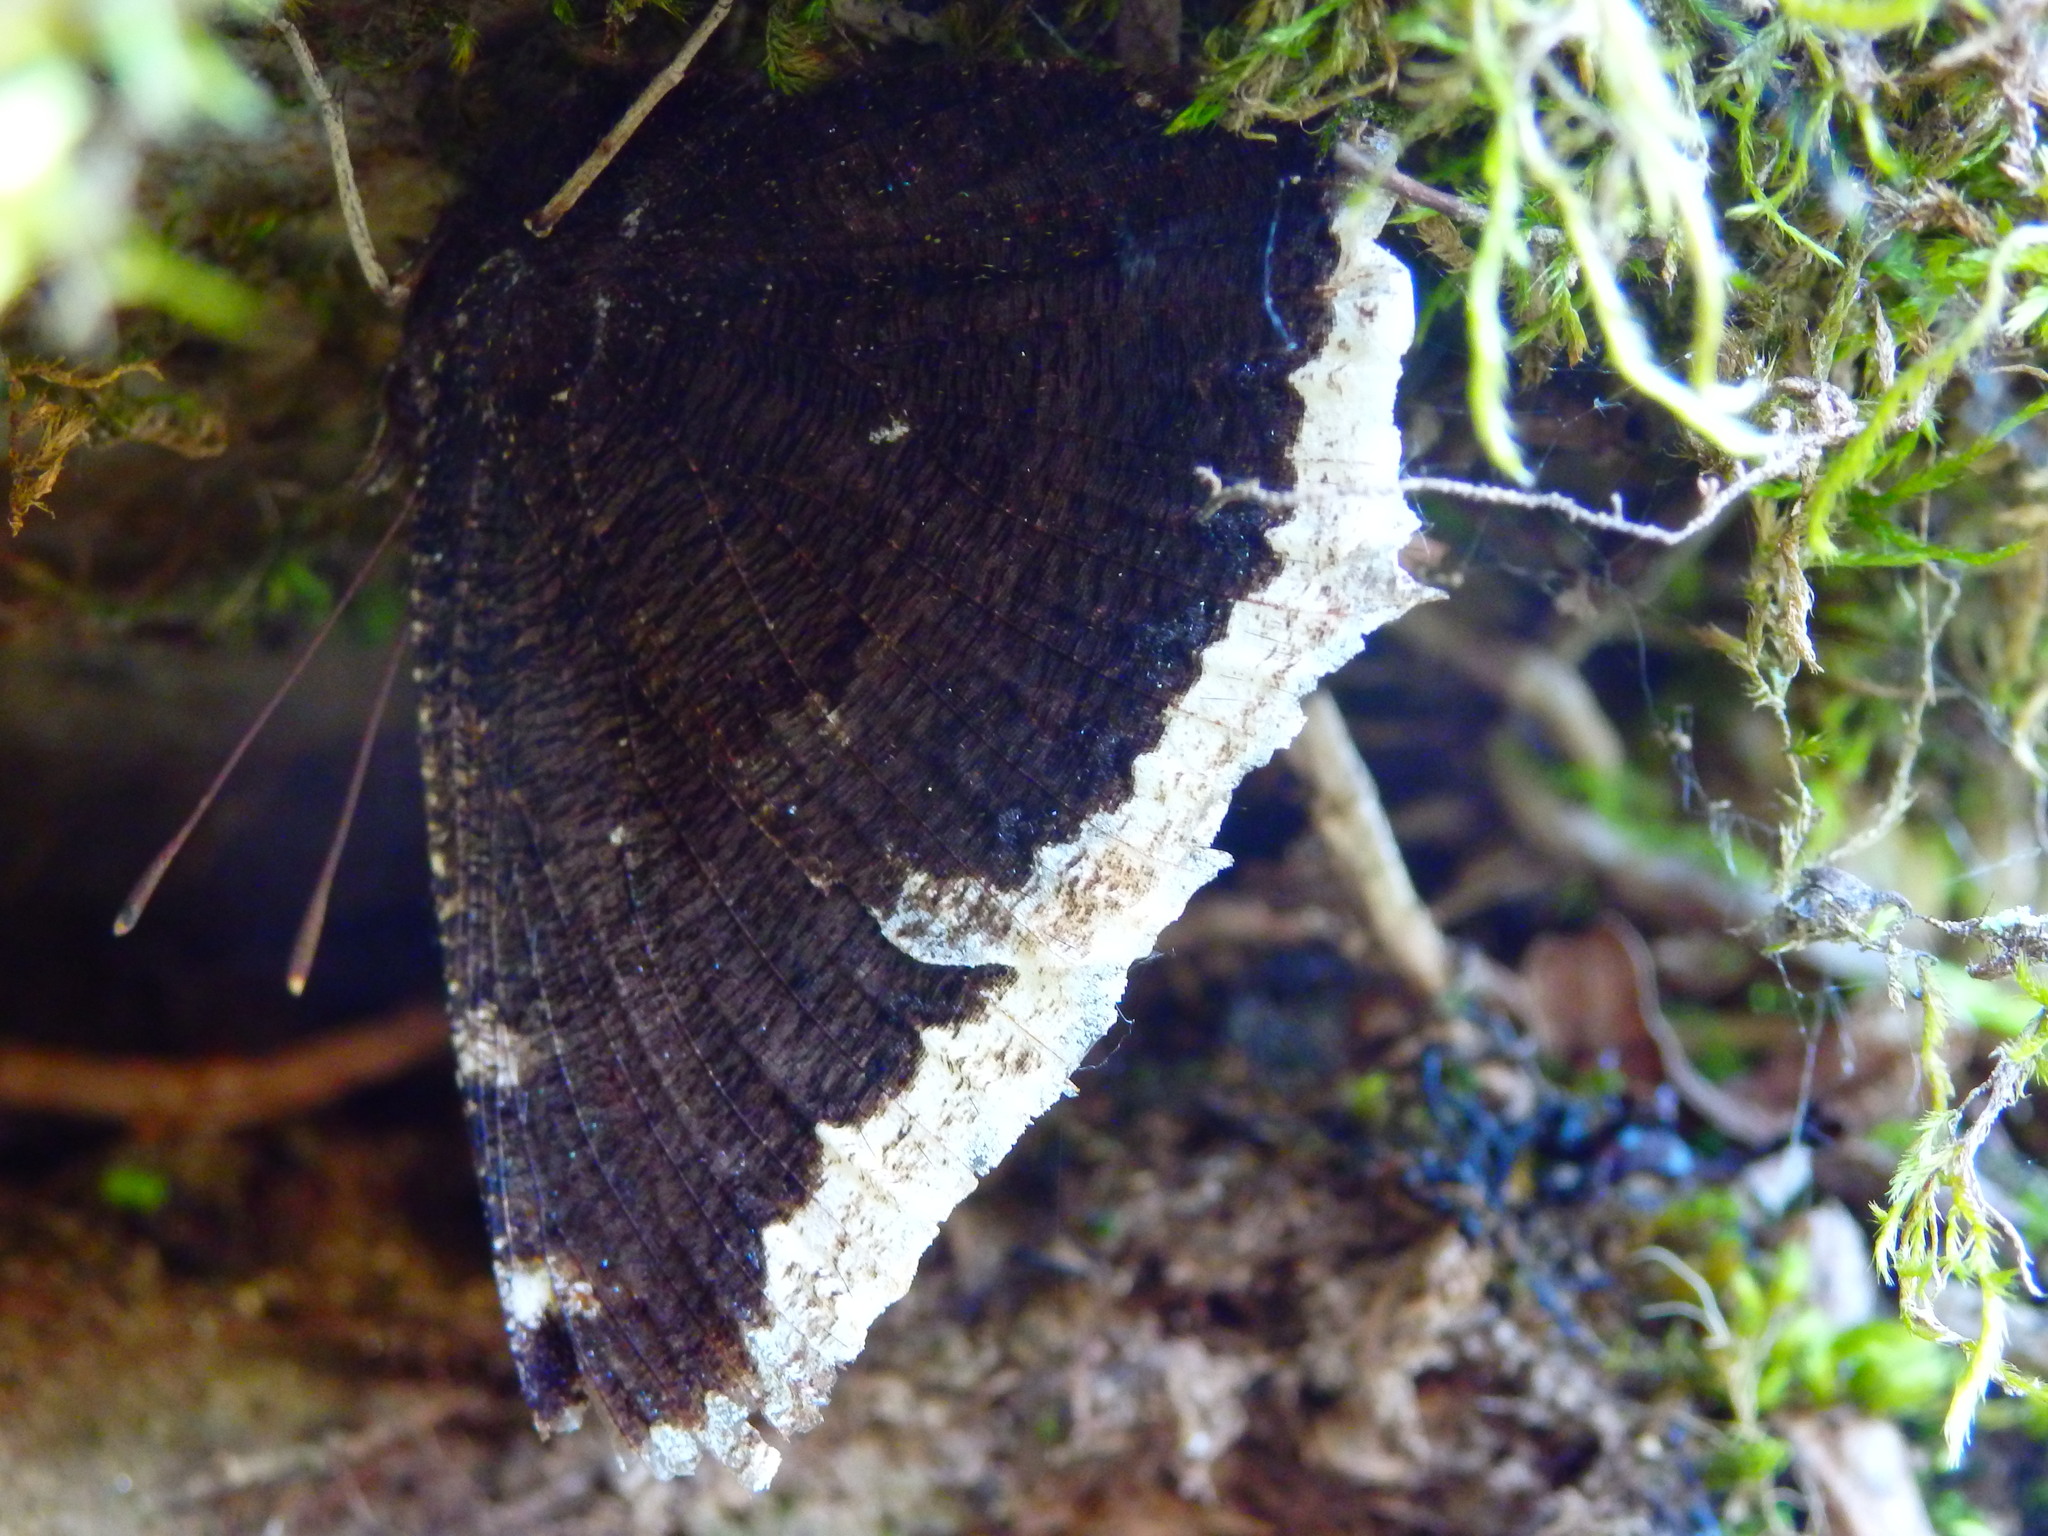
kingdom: Animalia
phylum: Arthropoda
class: Insecta
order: Lepidoptera
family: Nymphalidae
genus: Nymphalis
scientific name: Nymphalis antiopa
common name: Camberwell beauty
